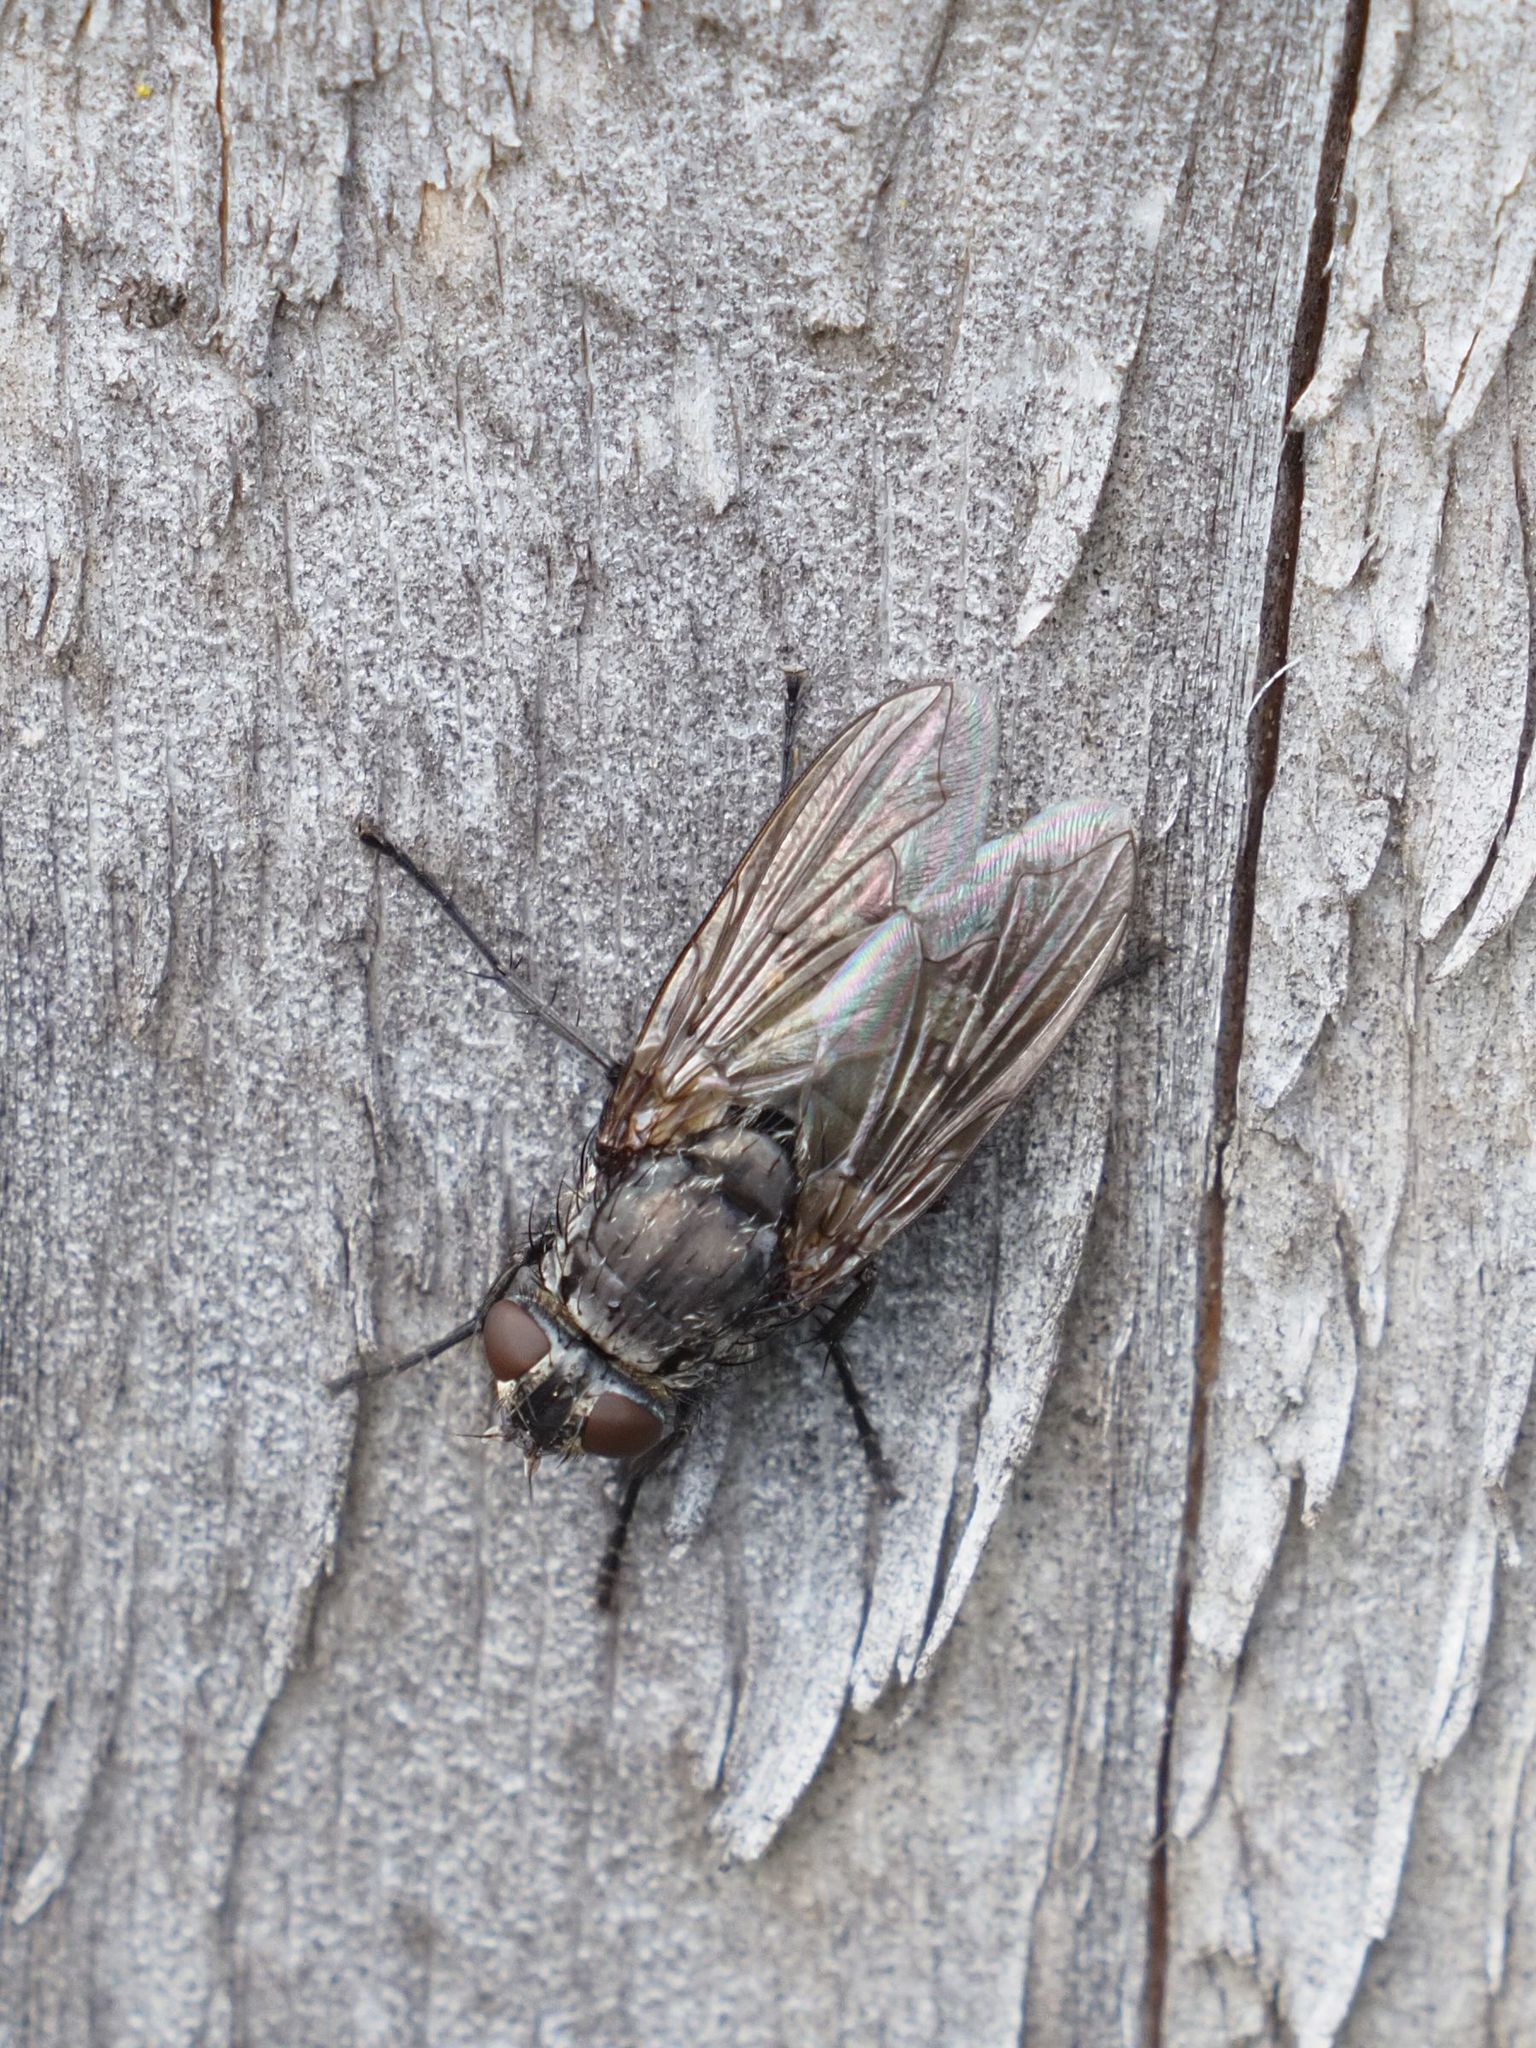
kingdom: Animalia
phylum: Arthropoda
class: Insecta
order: Diptera
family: Polleniidae
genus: Pollenia
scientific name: Pollenia vagabunda
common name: Vagabund cluster fly
